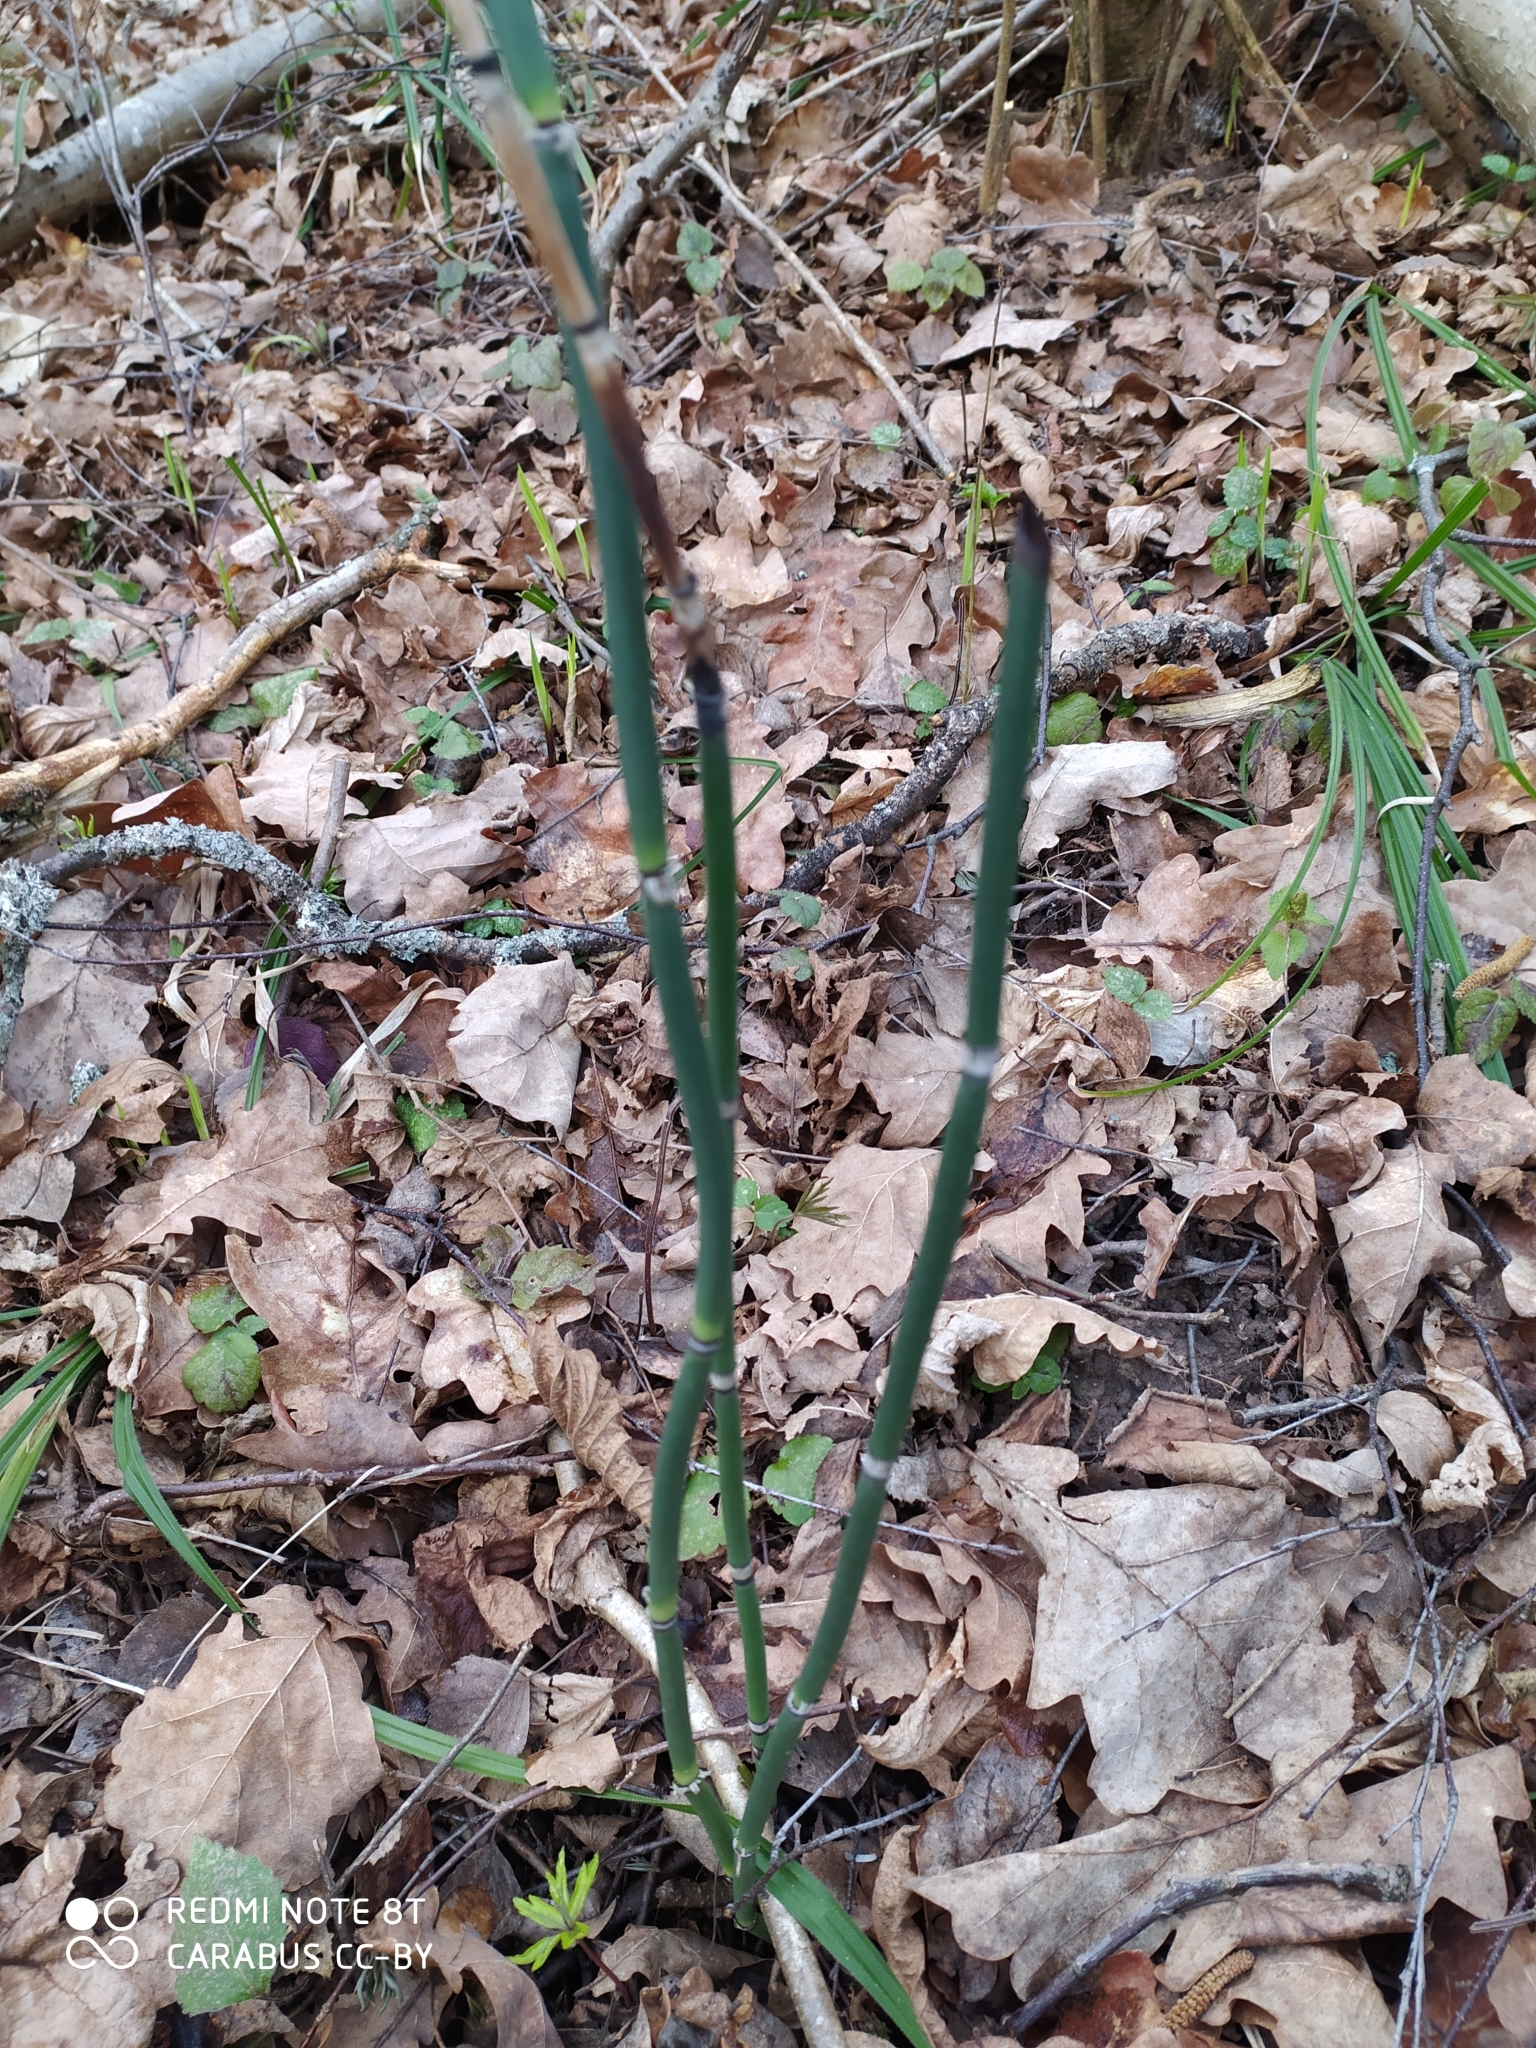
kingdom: Plantae
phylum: Tracheophyta
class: Polypodiopsida
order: Equisetales
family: Equisetaceae
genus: Equisetum
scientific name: Equisetum hyemale
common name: Rough horsetail
